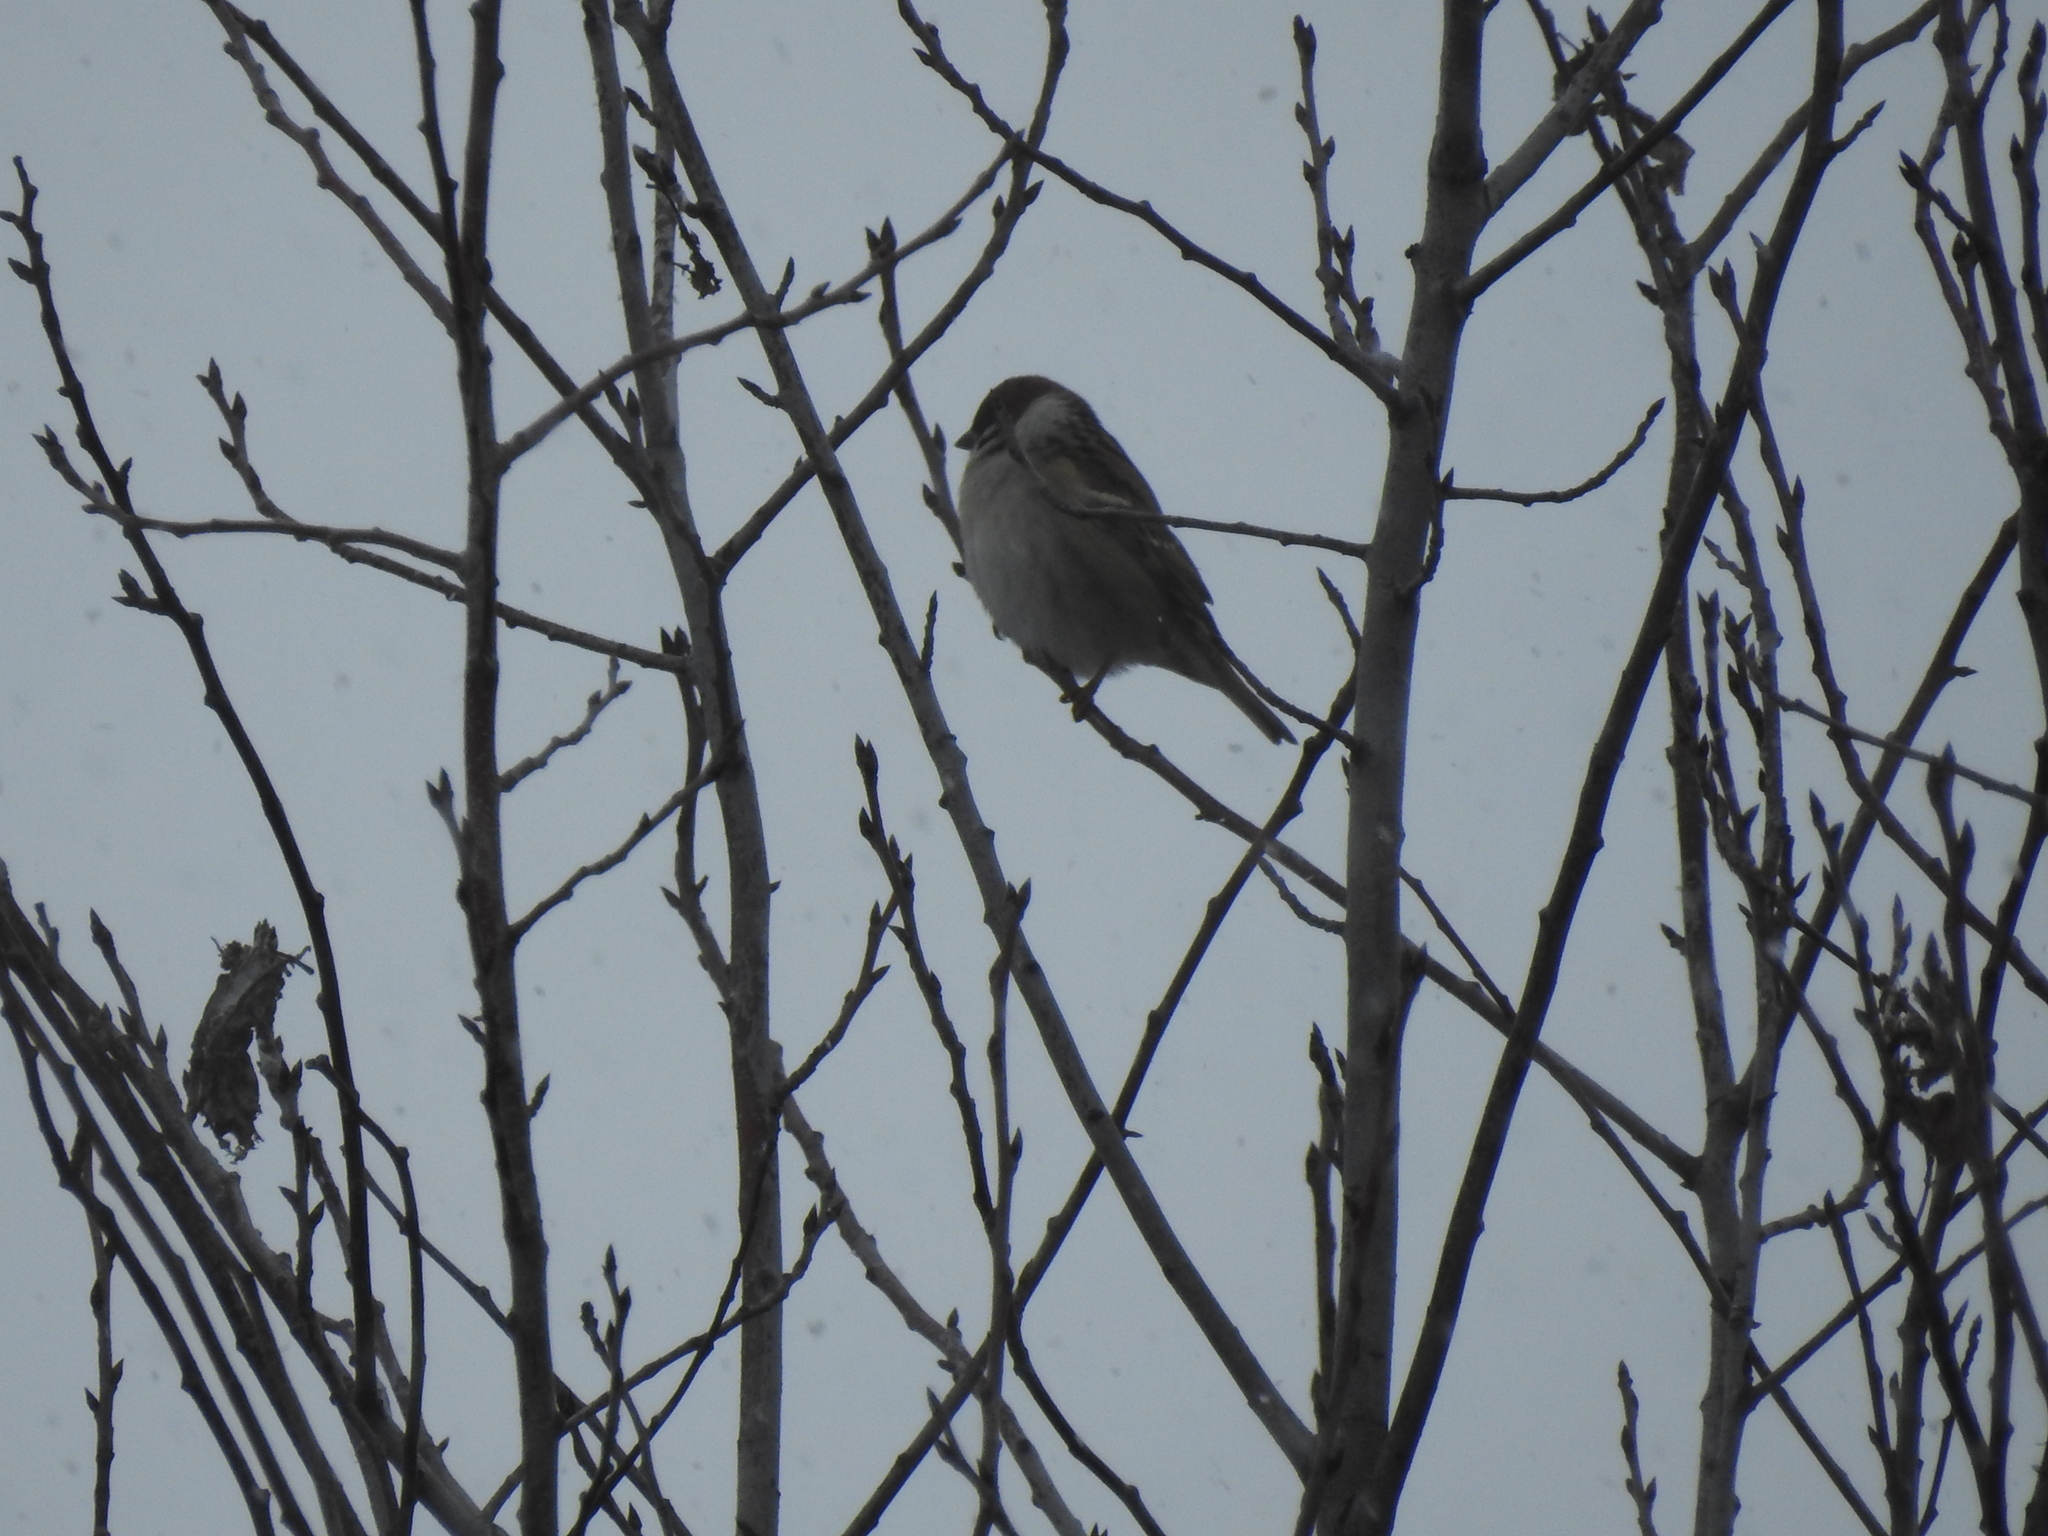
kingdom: Animalia
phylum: Chordata
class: Aves
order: Passeriformes
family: Passeridae
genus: Passer
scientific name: Passer montanus
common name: Eurasian tree sparrow
